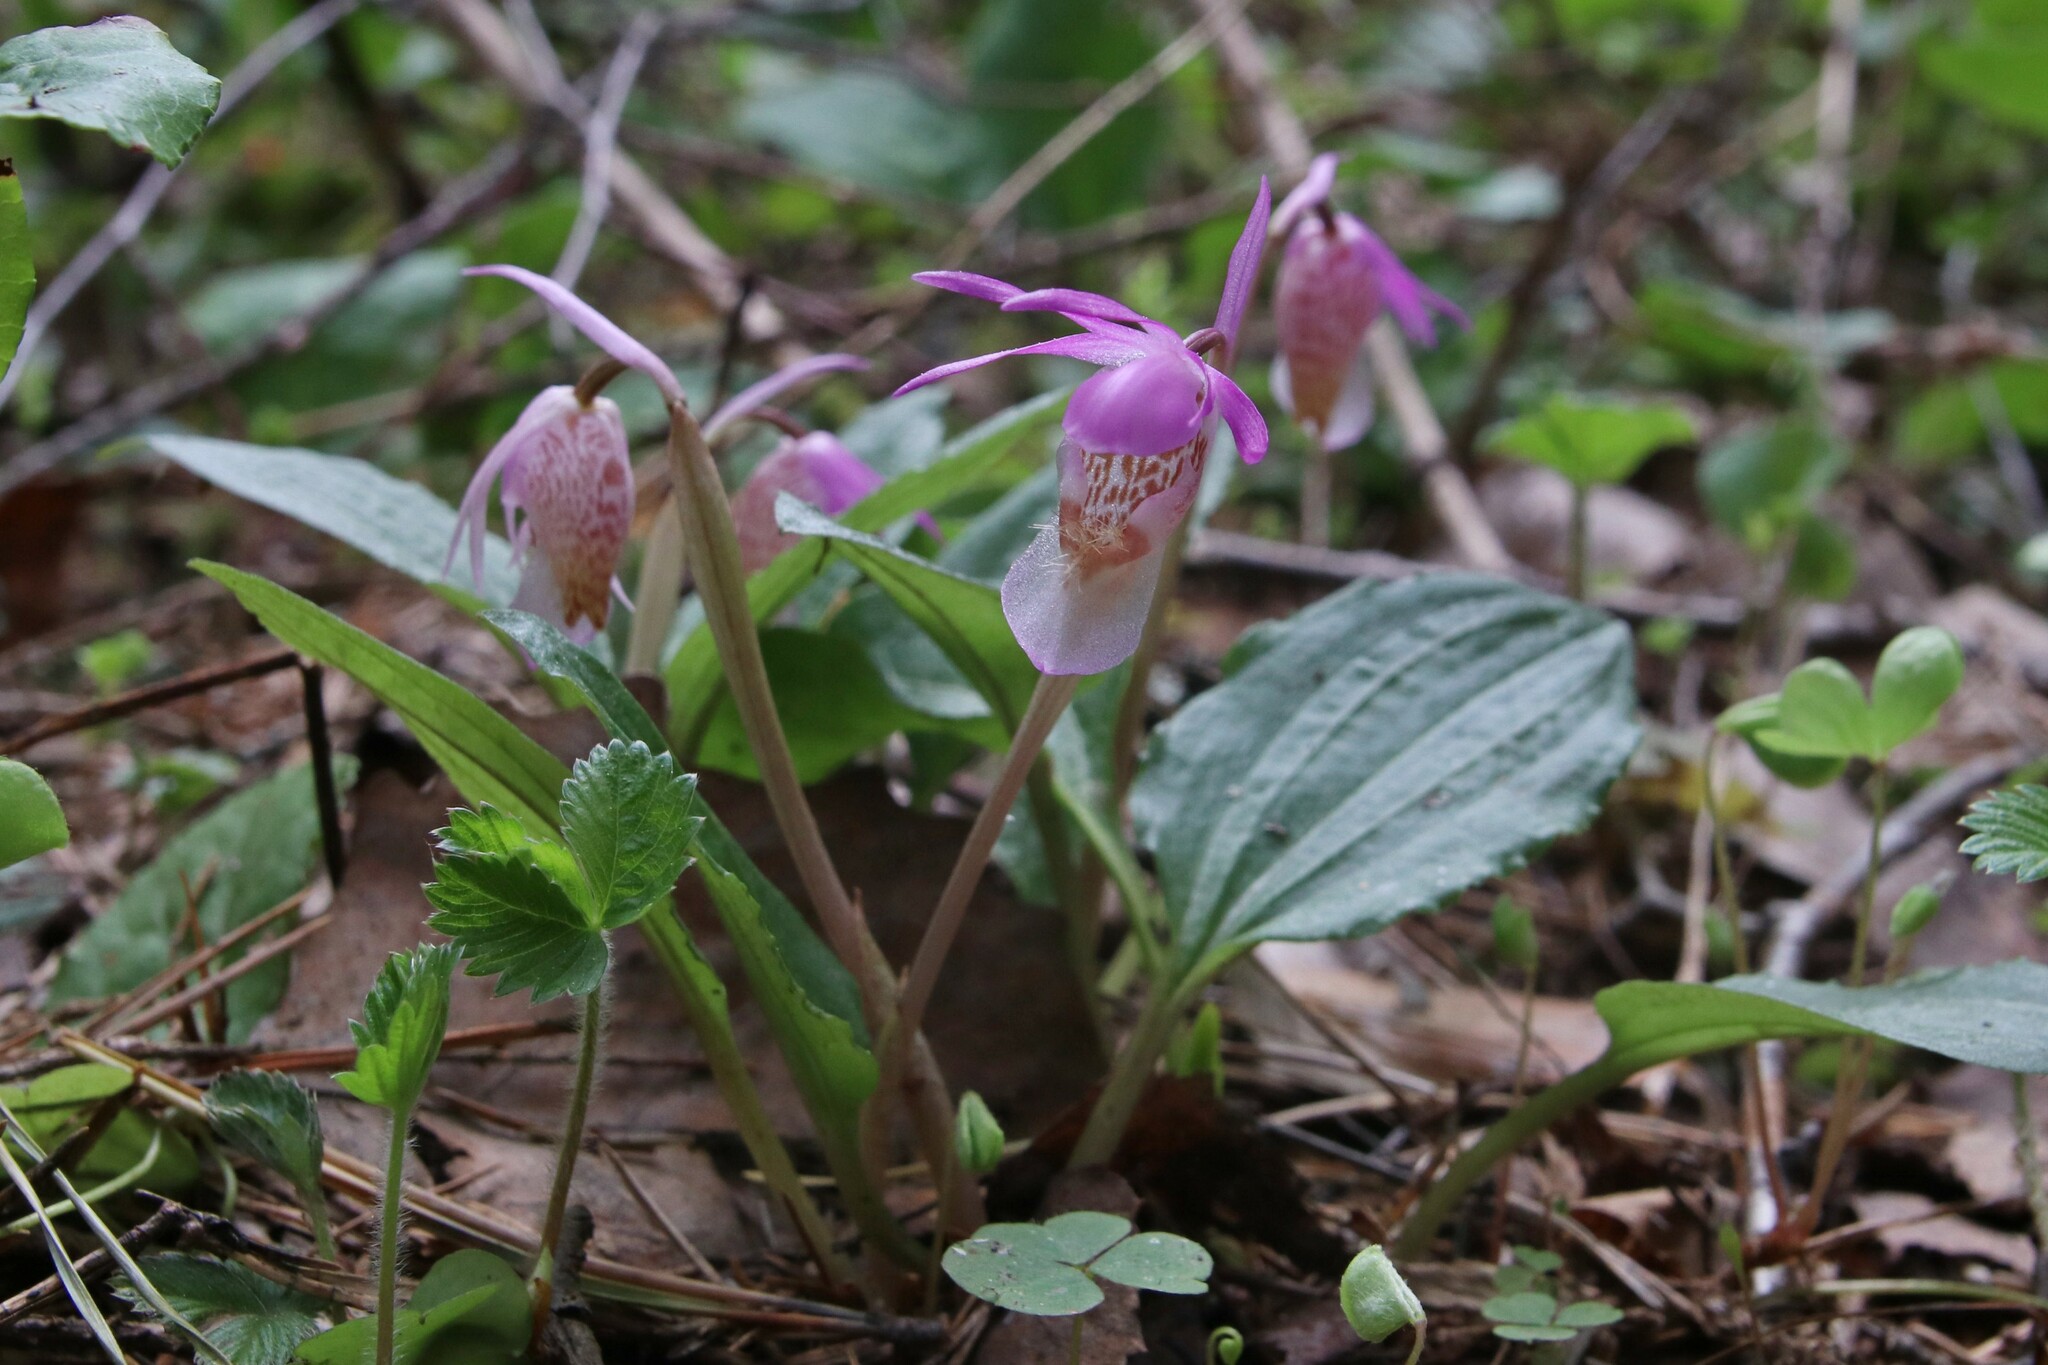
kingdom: Plantae
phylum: Tracheophyta
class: Liliopsida
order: Asparagales
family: Orchidaceae
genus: Calypso
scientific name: Calypso bulbosa
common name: Calypso
